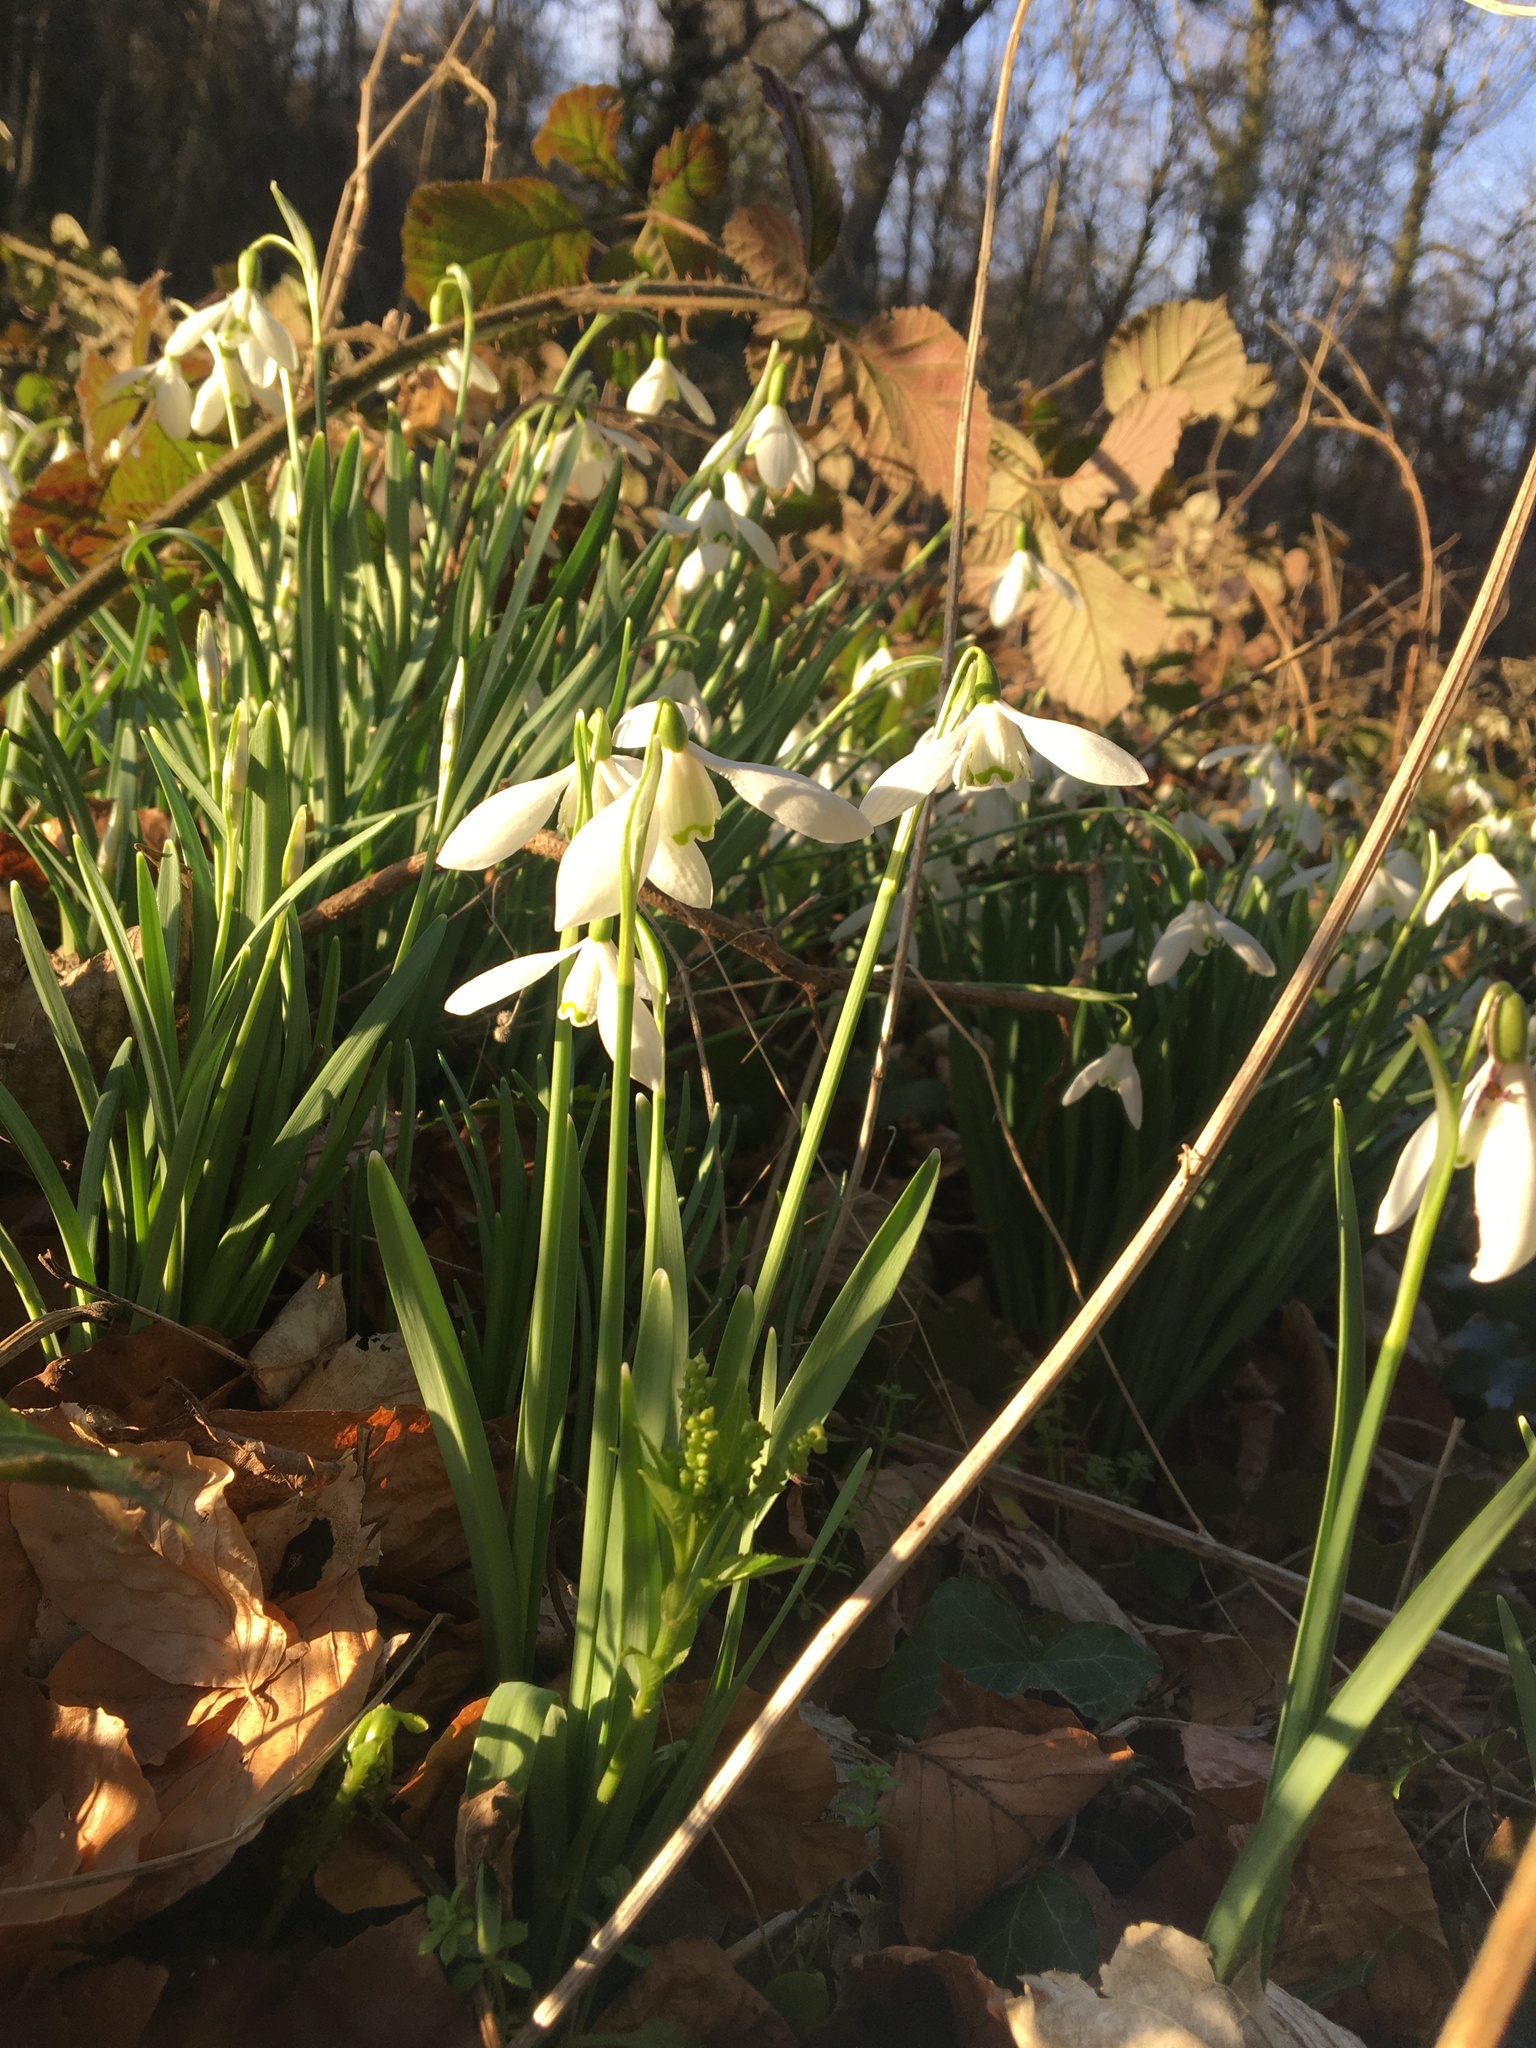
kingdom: Plantae
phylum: Tracheophyta
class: Liliopsida
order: Asparagales
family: Amaryllidaceae
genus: Galanthus
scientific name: Galanthus nivalis
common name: Snowdrop
